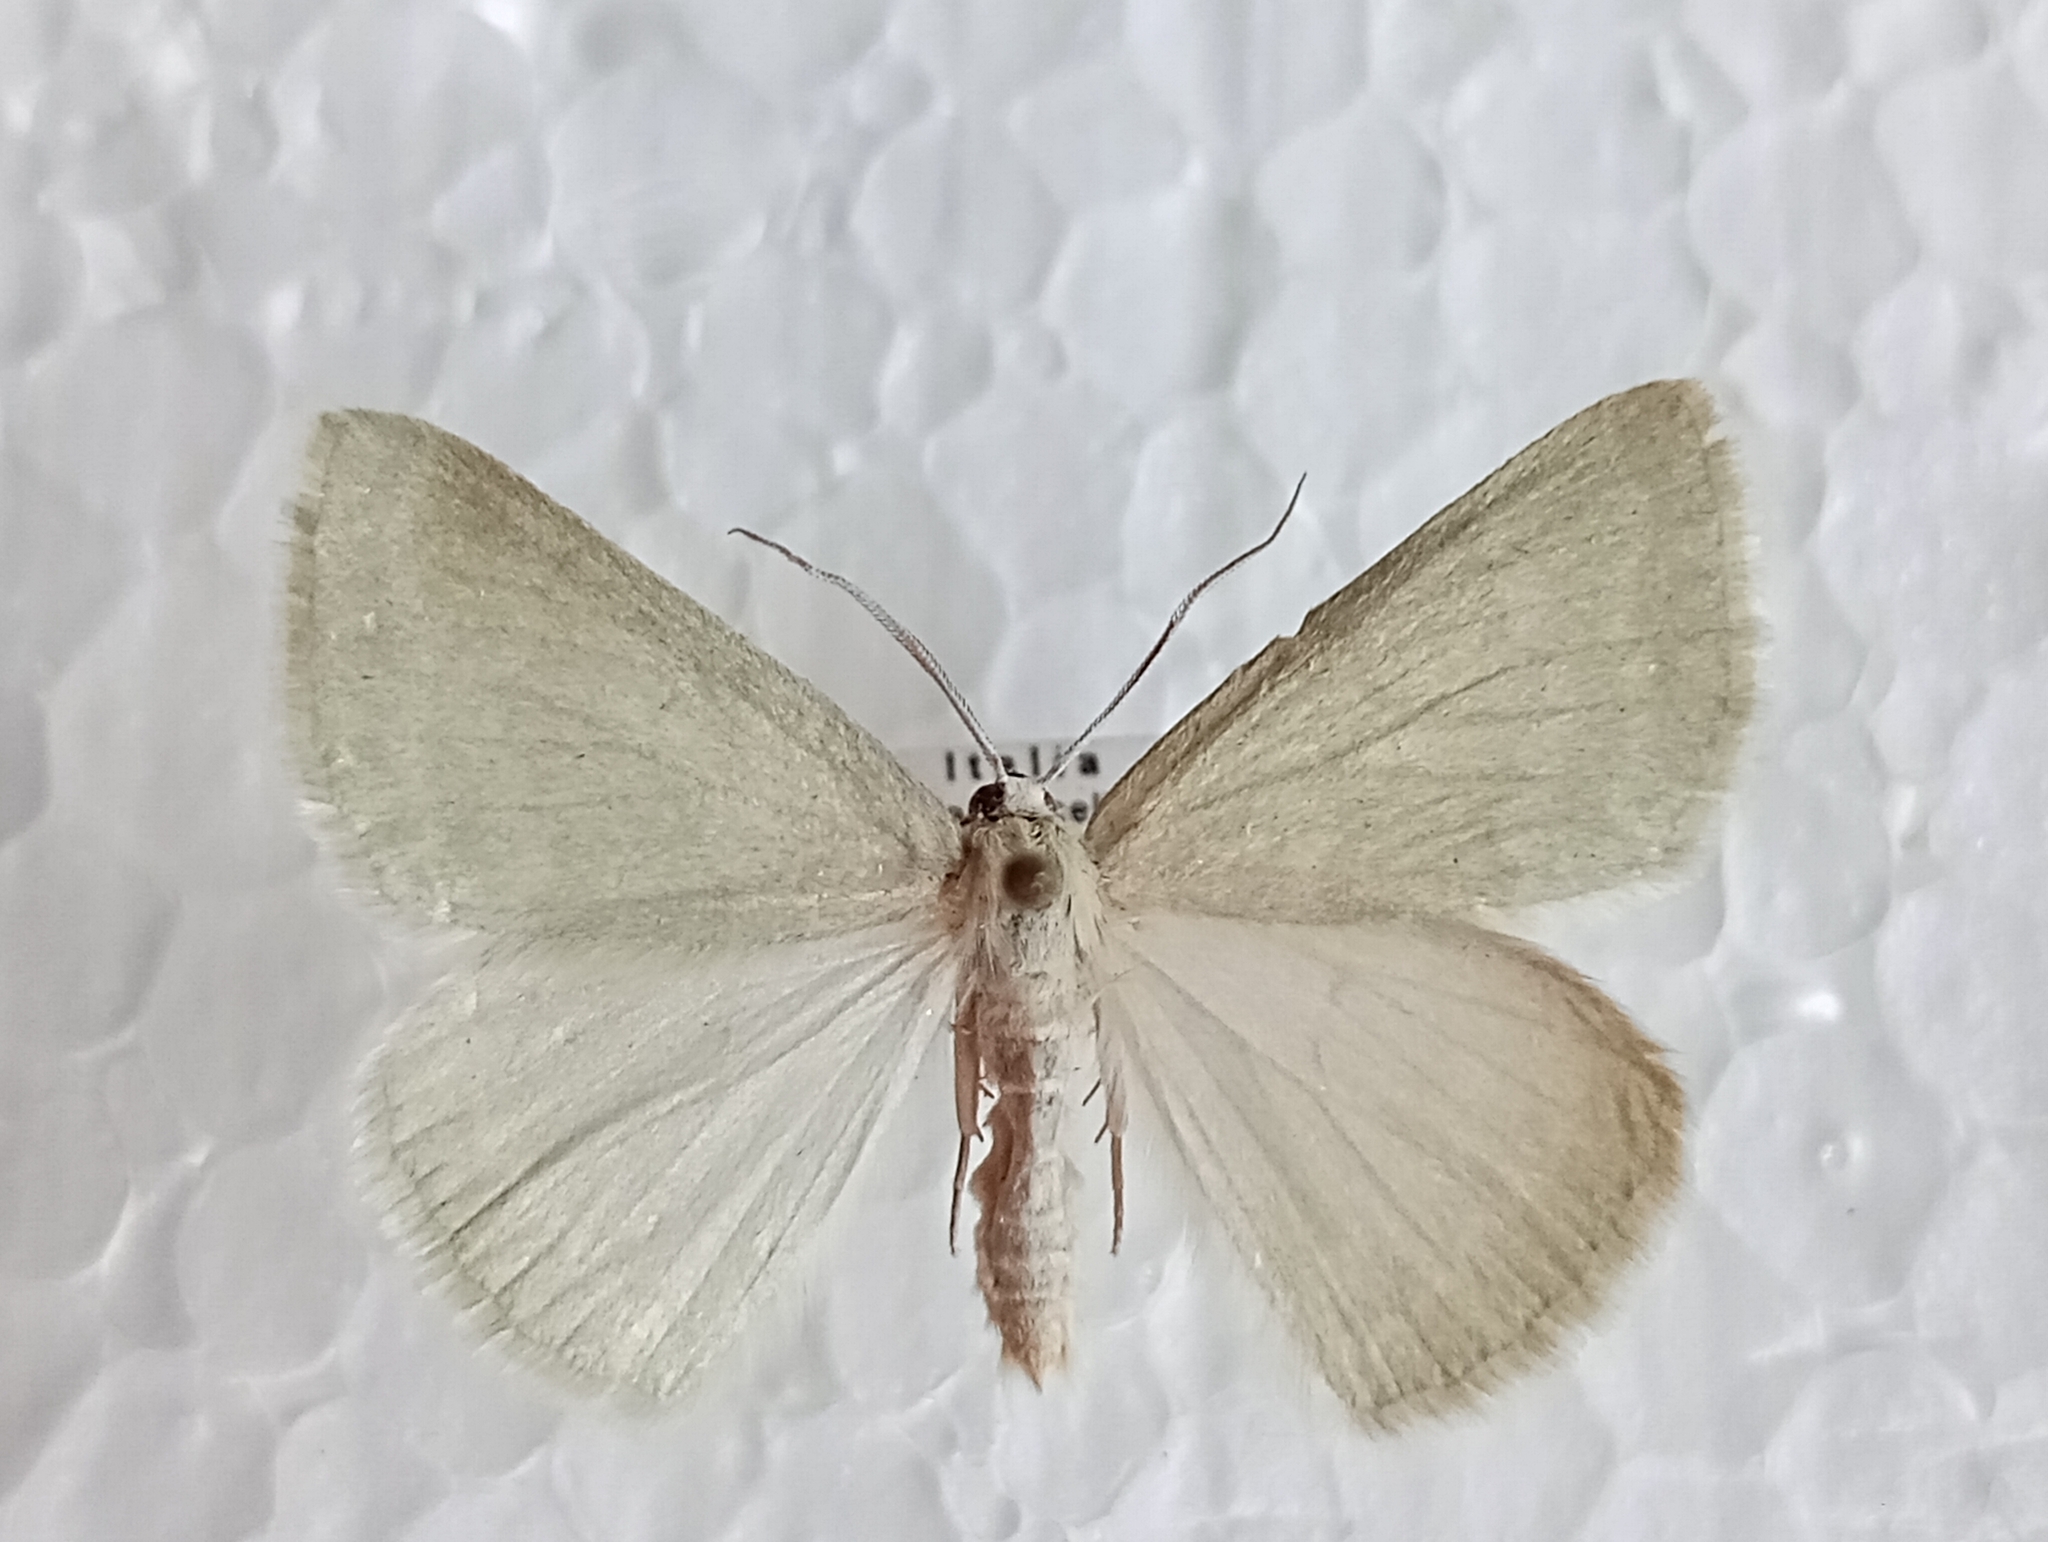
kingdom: Animalia
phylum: Arthropoda
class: Insecta
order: Lepidoptera
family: Geometridae
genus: Pseudoterpna
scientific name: Pseudoterpna pruinata
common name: Grass emerald
